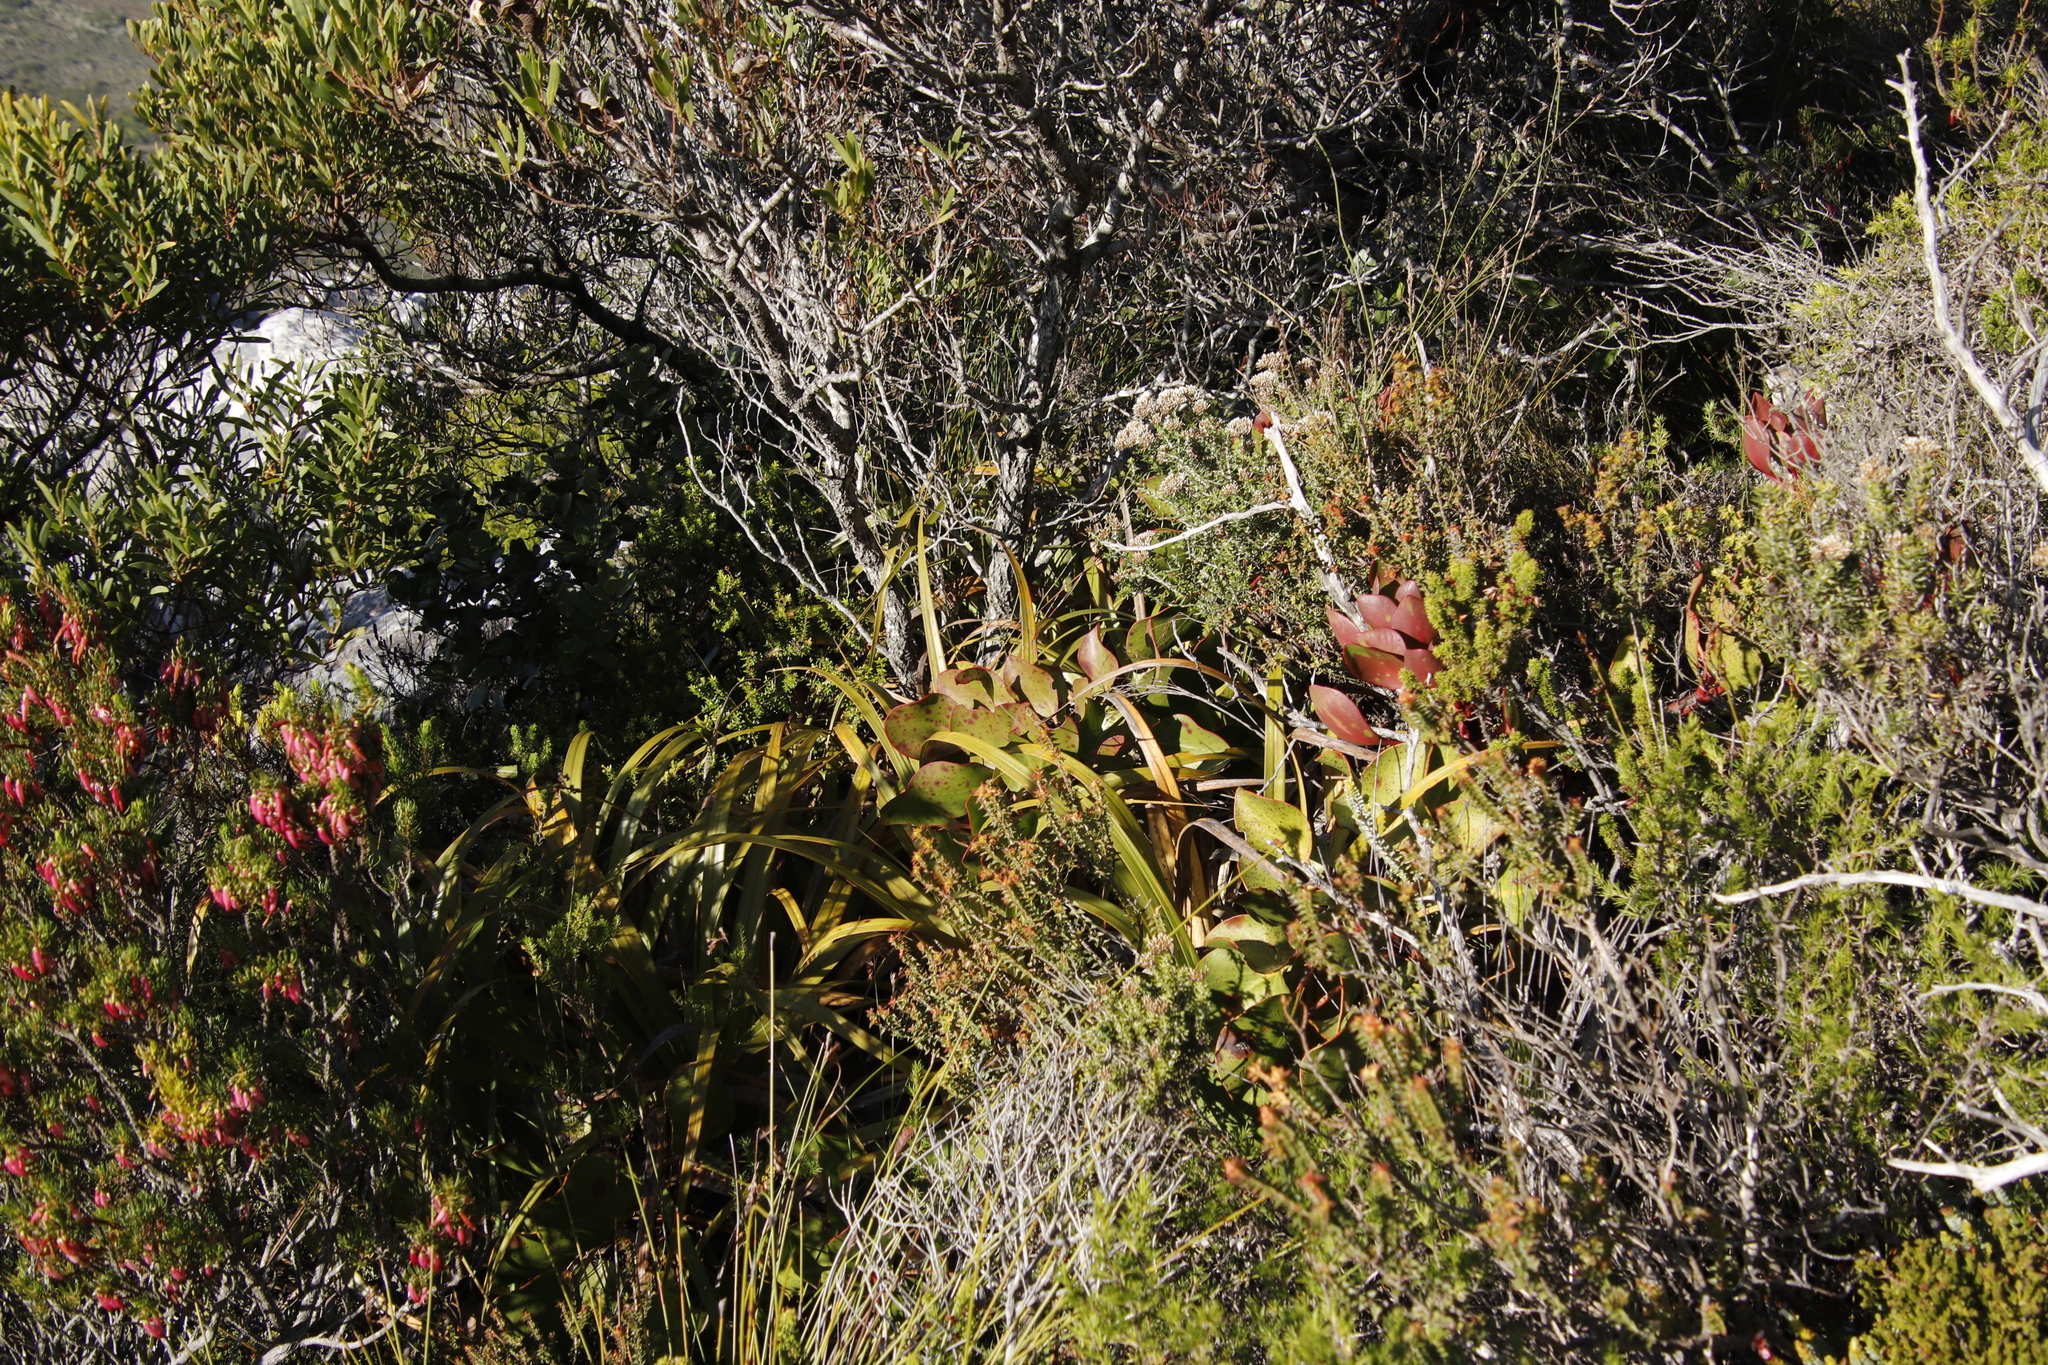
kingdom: Plantae
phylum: Tracheophyta
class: Magnoliopsida
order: Proteales
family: Proteaceae
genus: Protea
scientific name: Protea cynaroides
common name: King protea
